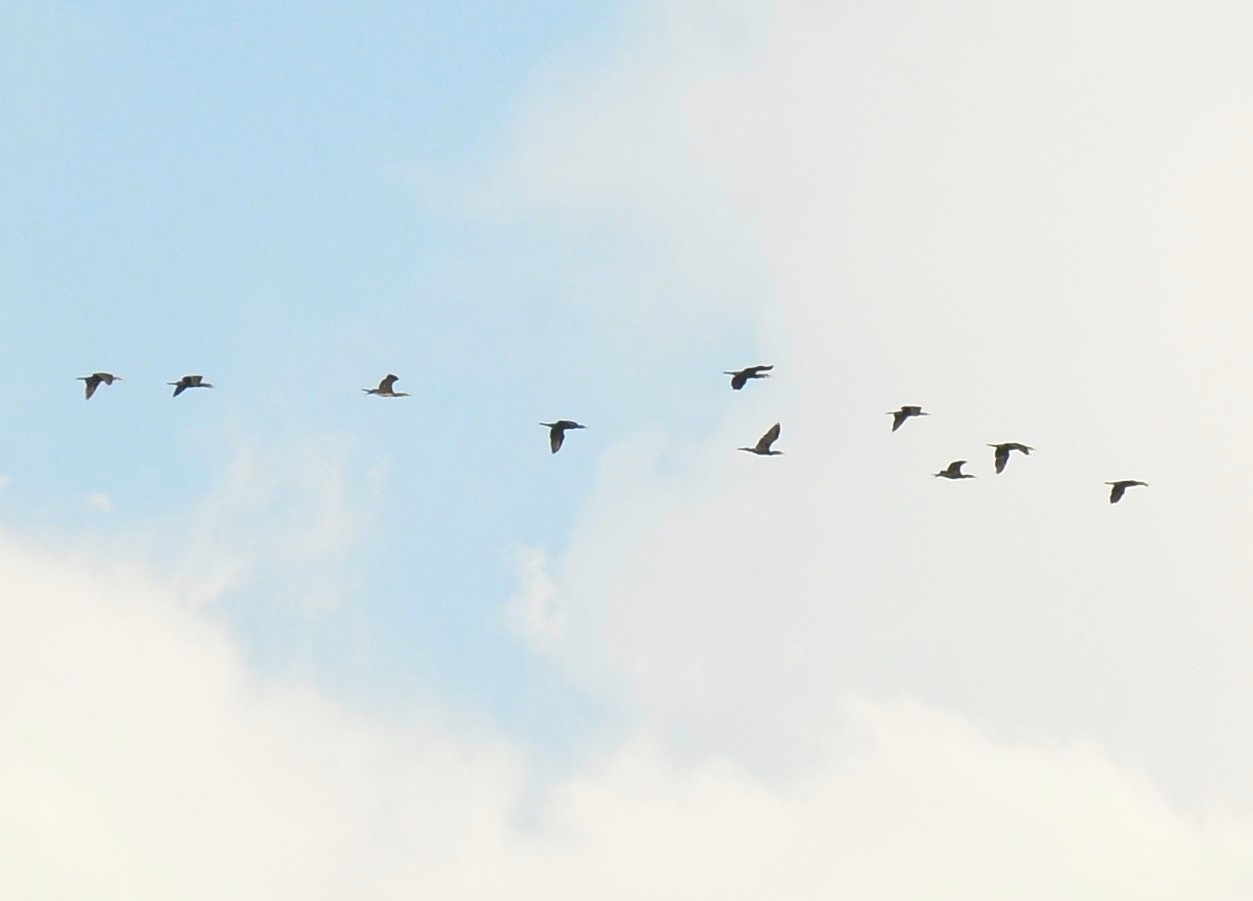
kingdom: Animalia
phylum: Chordata
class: Aves
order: Suliformes
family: Phalacrocoracidae
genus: Phalacrocorax
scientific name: Phalacrocorax fuscicollis
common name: Indian cormorant
